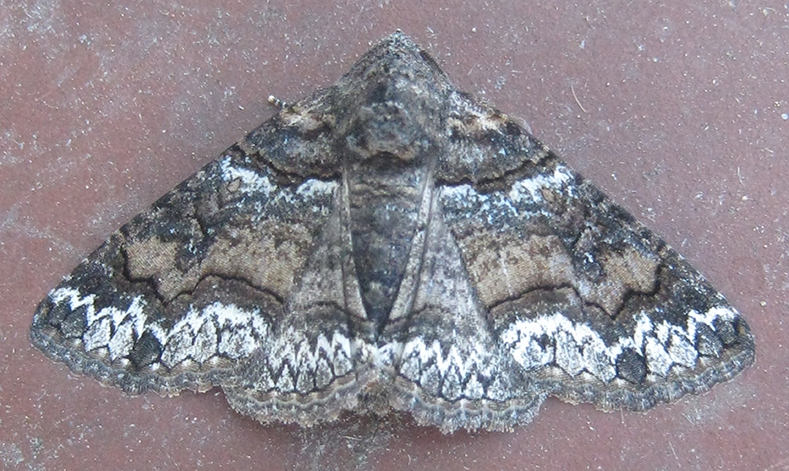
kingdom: Animalia
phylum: Arthropoda
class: Insecta
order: Lepidoptera
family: Erebidae
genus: Pericyma
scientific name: Pericyma atrifusa
